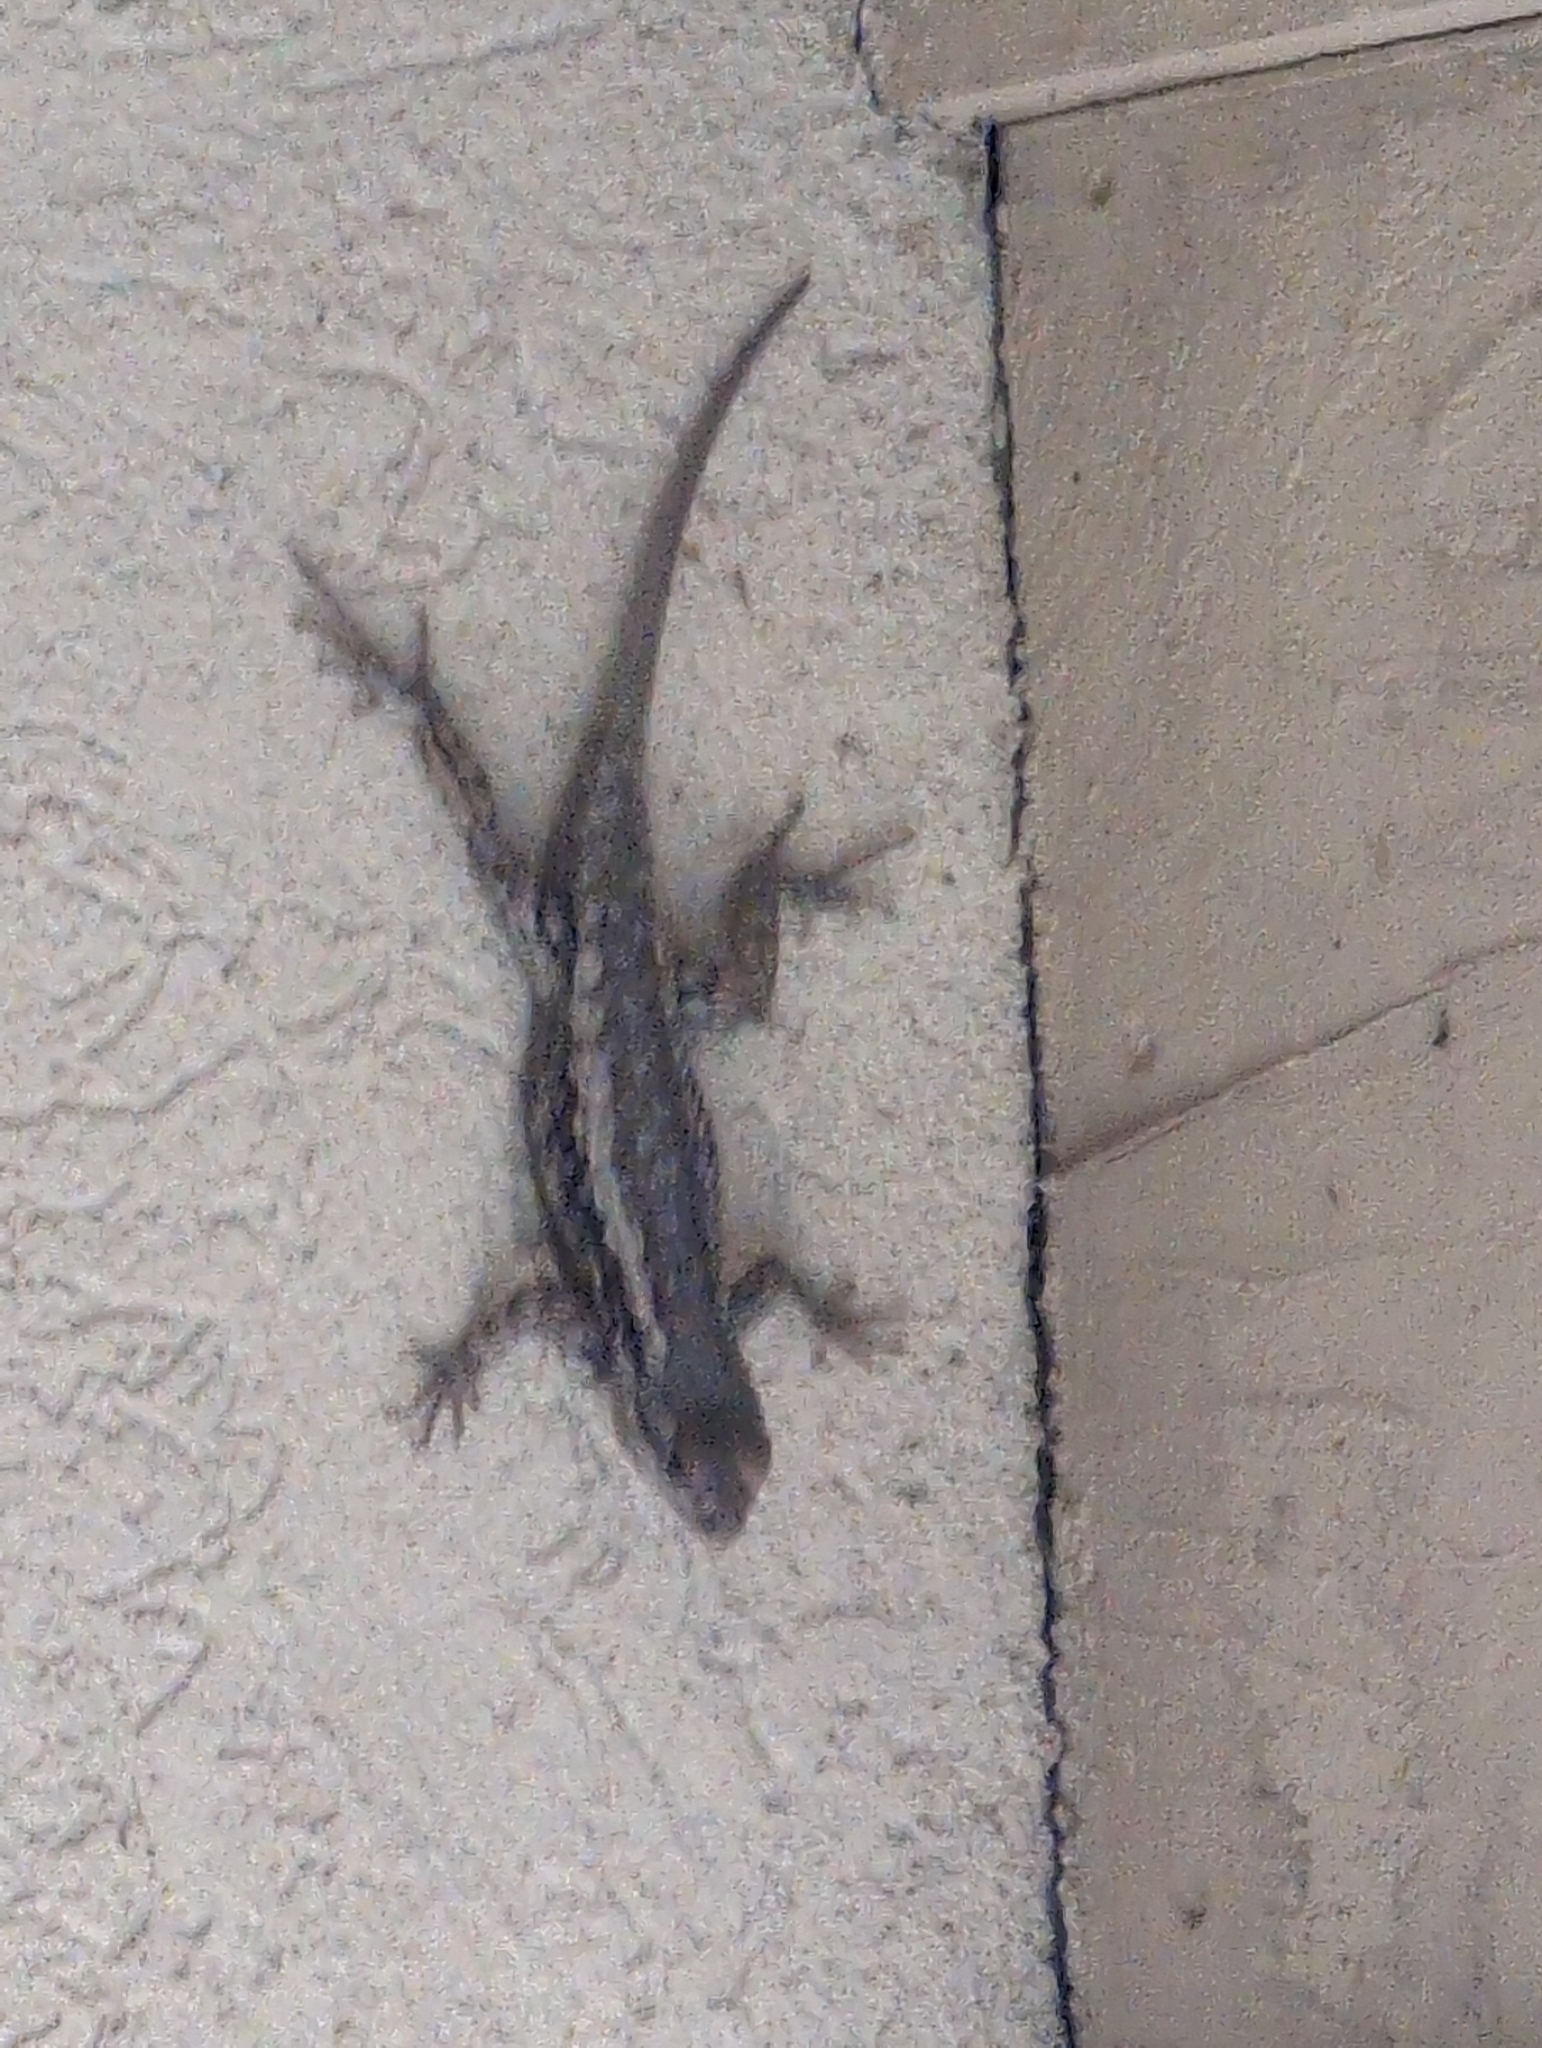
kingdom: Animalia
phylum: Chordata
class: Squamata
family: Phrynosomatidae
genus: Sceloporus
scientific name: Sceloporus olivaceus
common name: Texas spiny lizard
